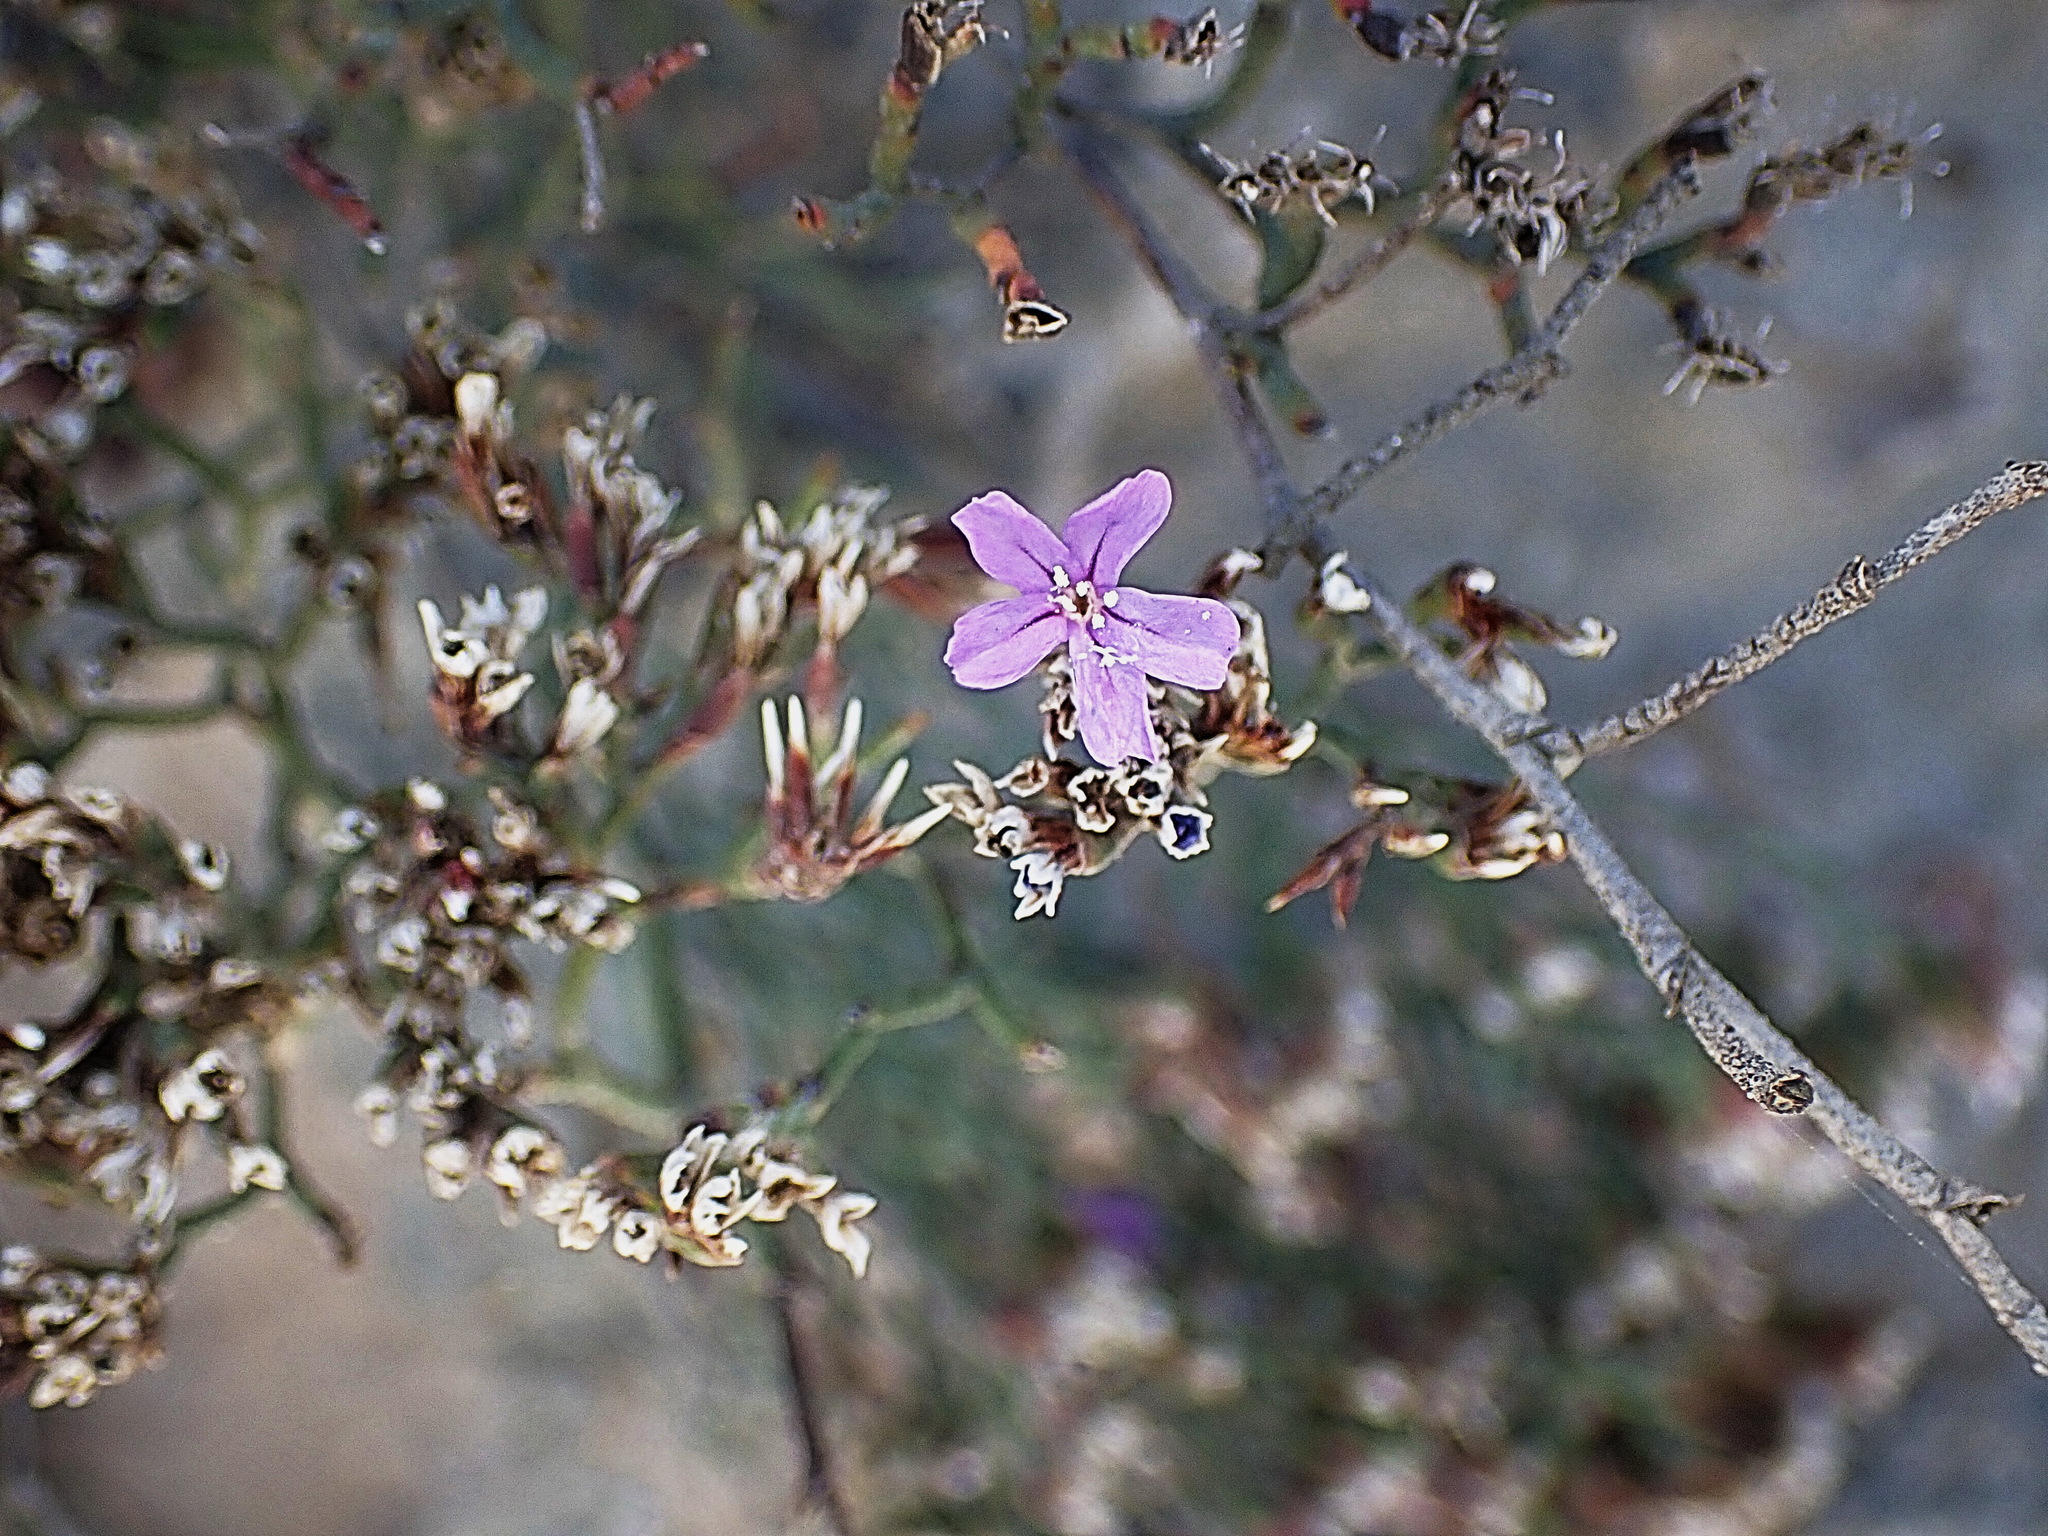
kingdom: Plantae
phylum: Tracheophyta
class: Magnoliopsida
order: Caryophyllales
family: Plumbaginaceae
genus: Limonium
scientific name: Limonium scabrum
